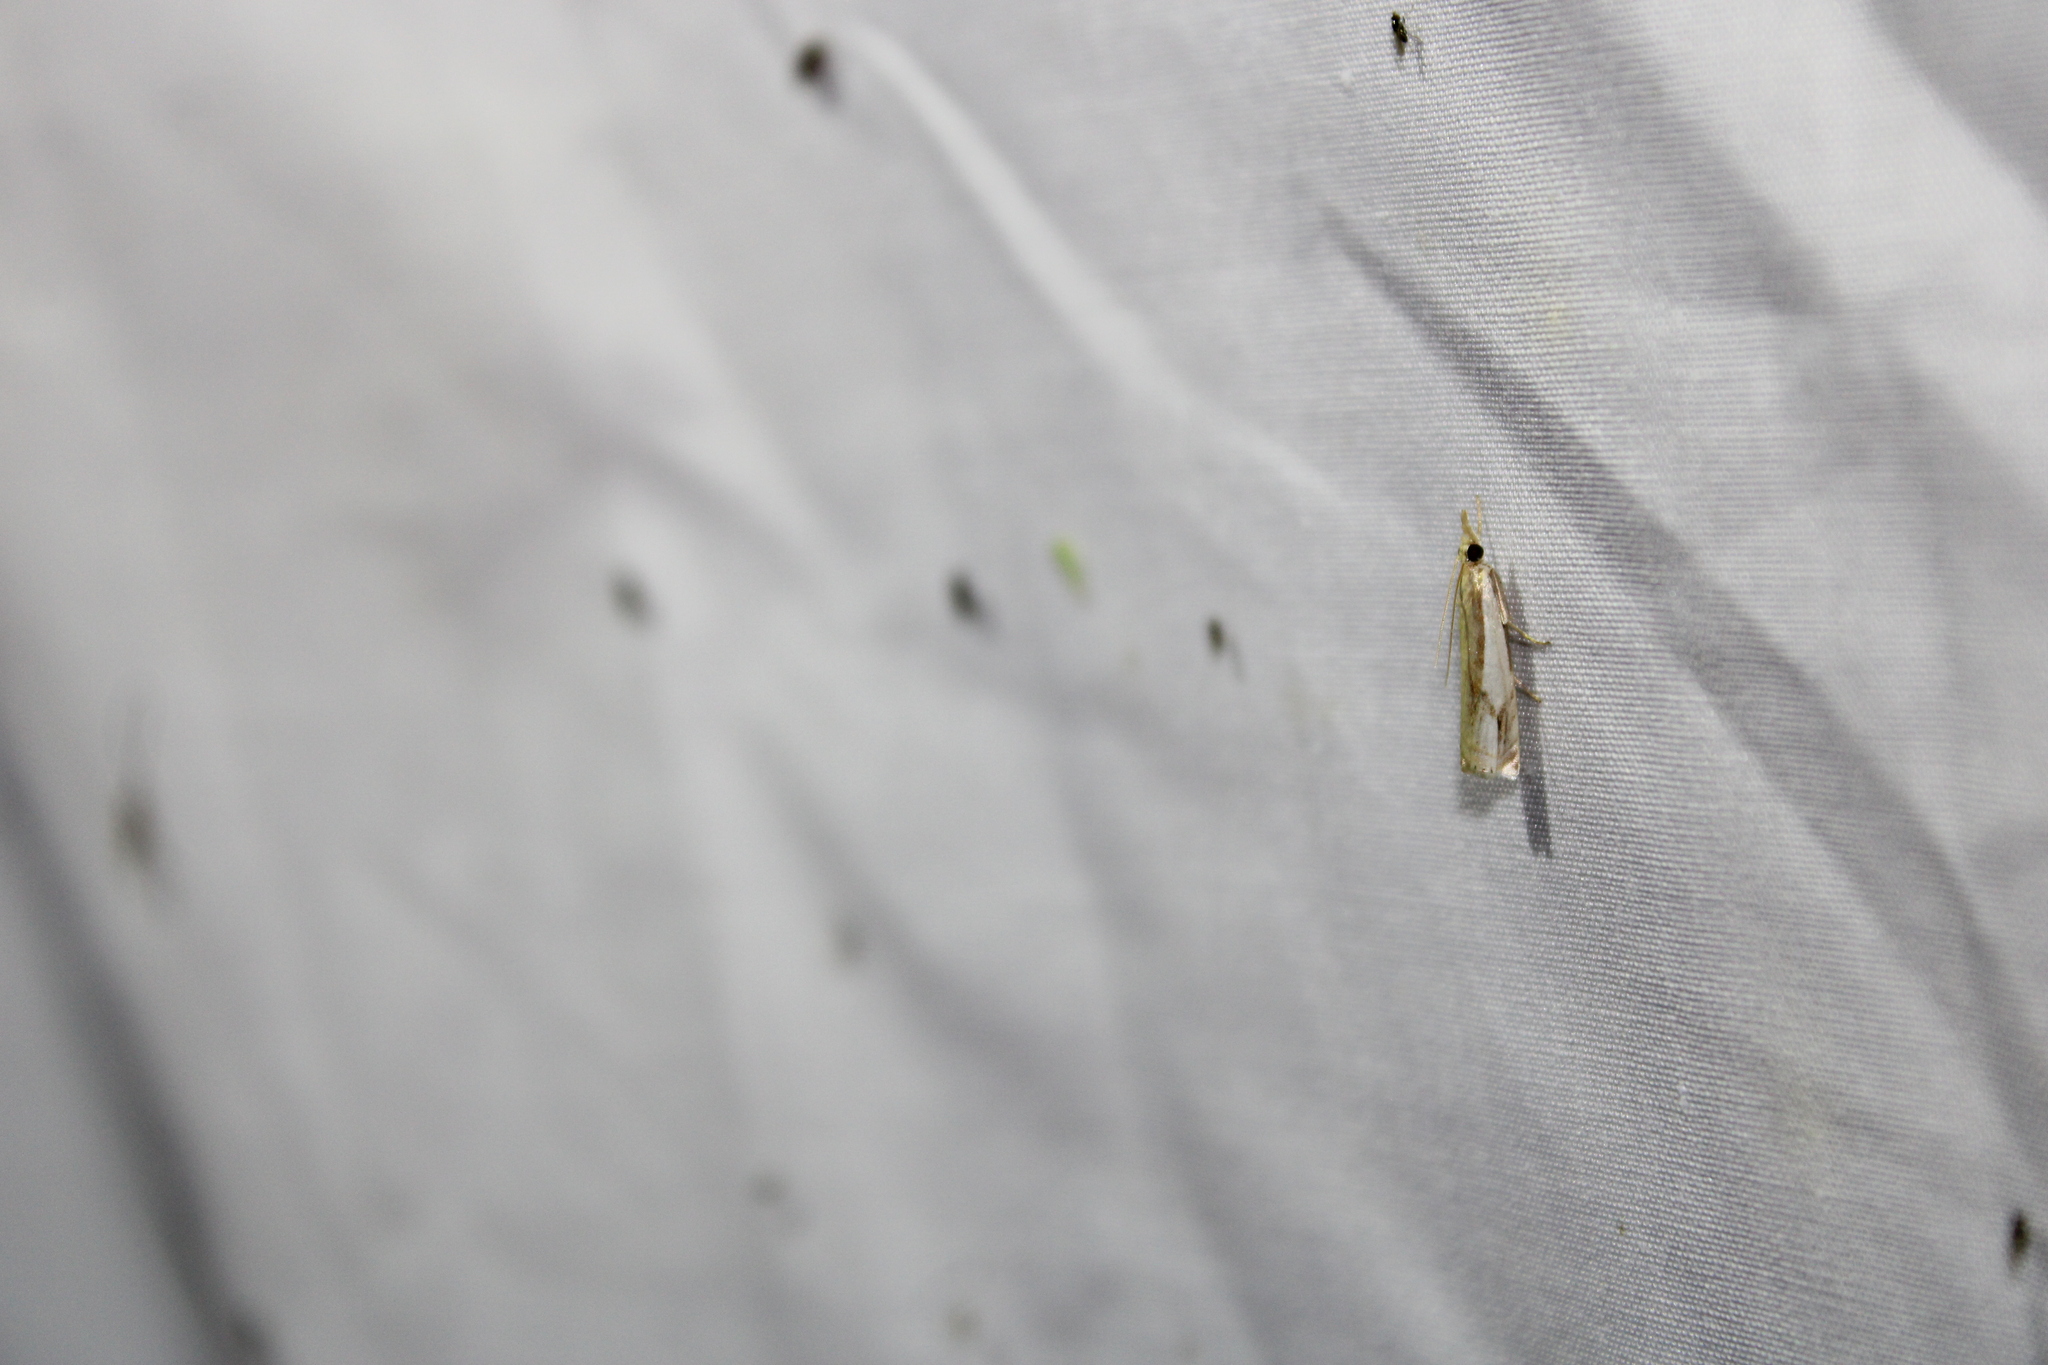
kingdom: Animalia
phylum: Arthropoda
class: Insecta
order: Lepidoptera
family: Crambidae
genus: Crambus
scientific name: Crambus agitatellus
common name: Double-banded grass-veneer
